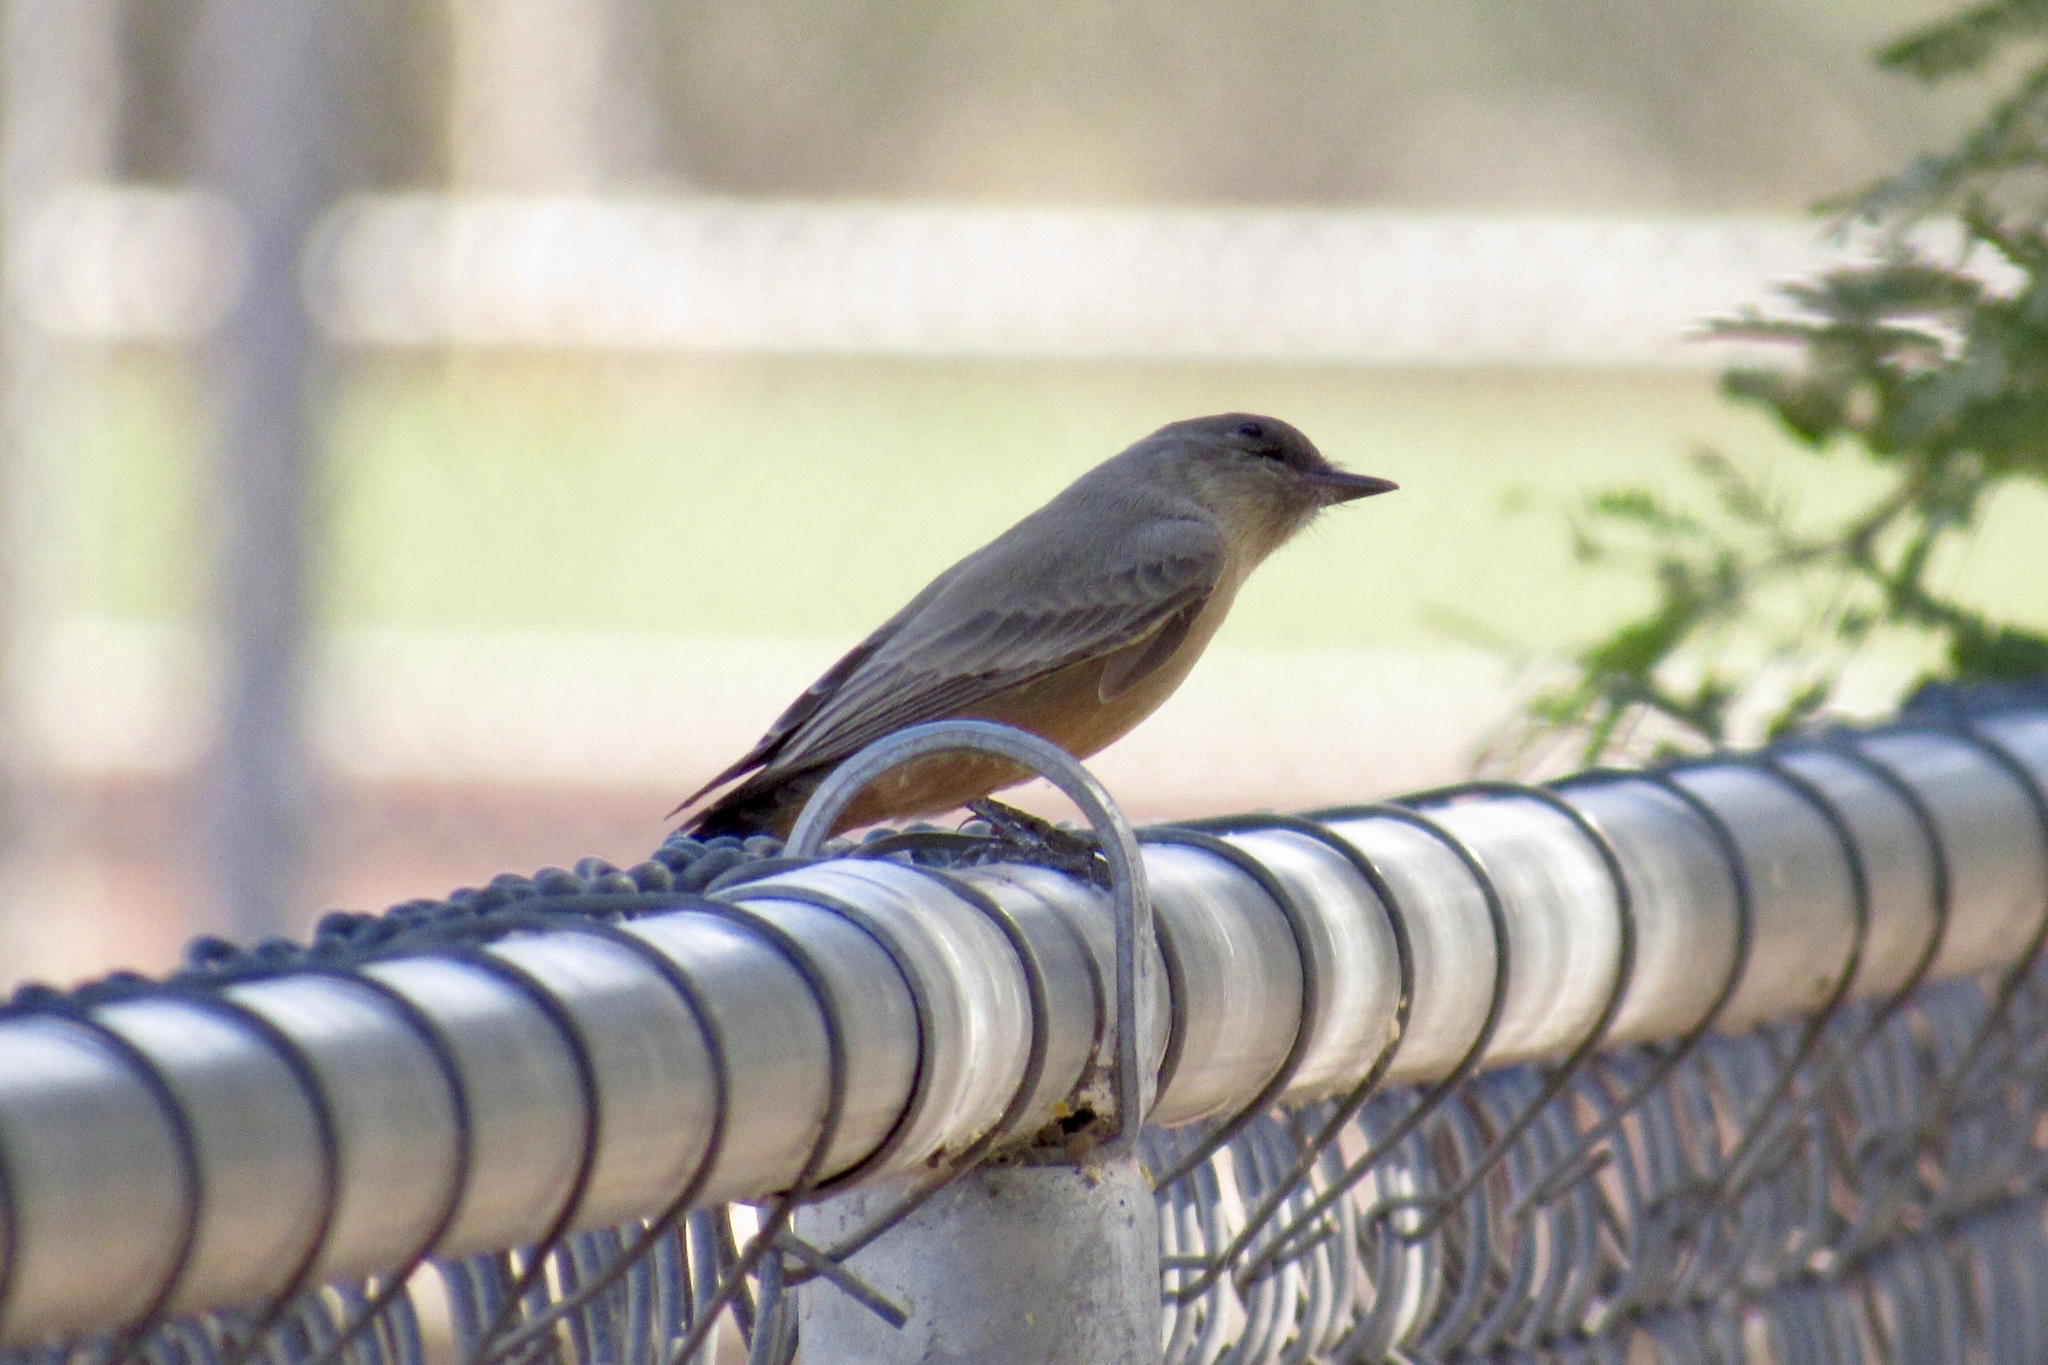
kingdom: Animalia
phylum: Chordata
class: Aves
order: Passeriformes
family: Tyrannidae
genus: Sayornis
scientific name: Sayornis saya
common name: Say's phoebe
